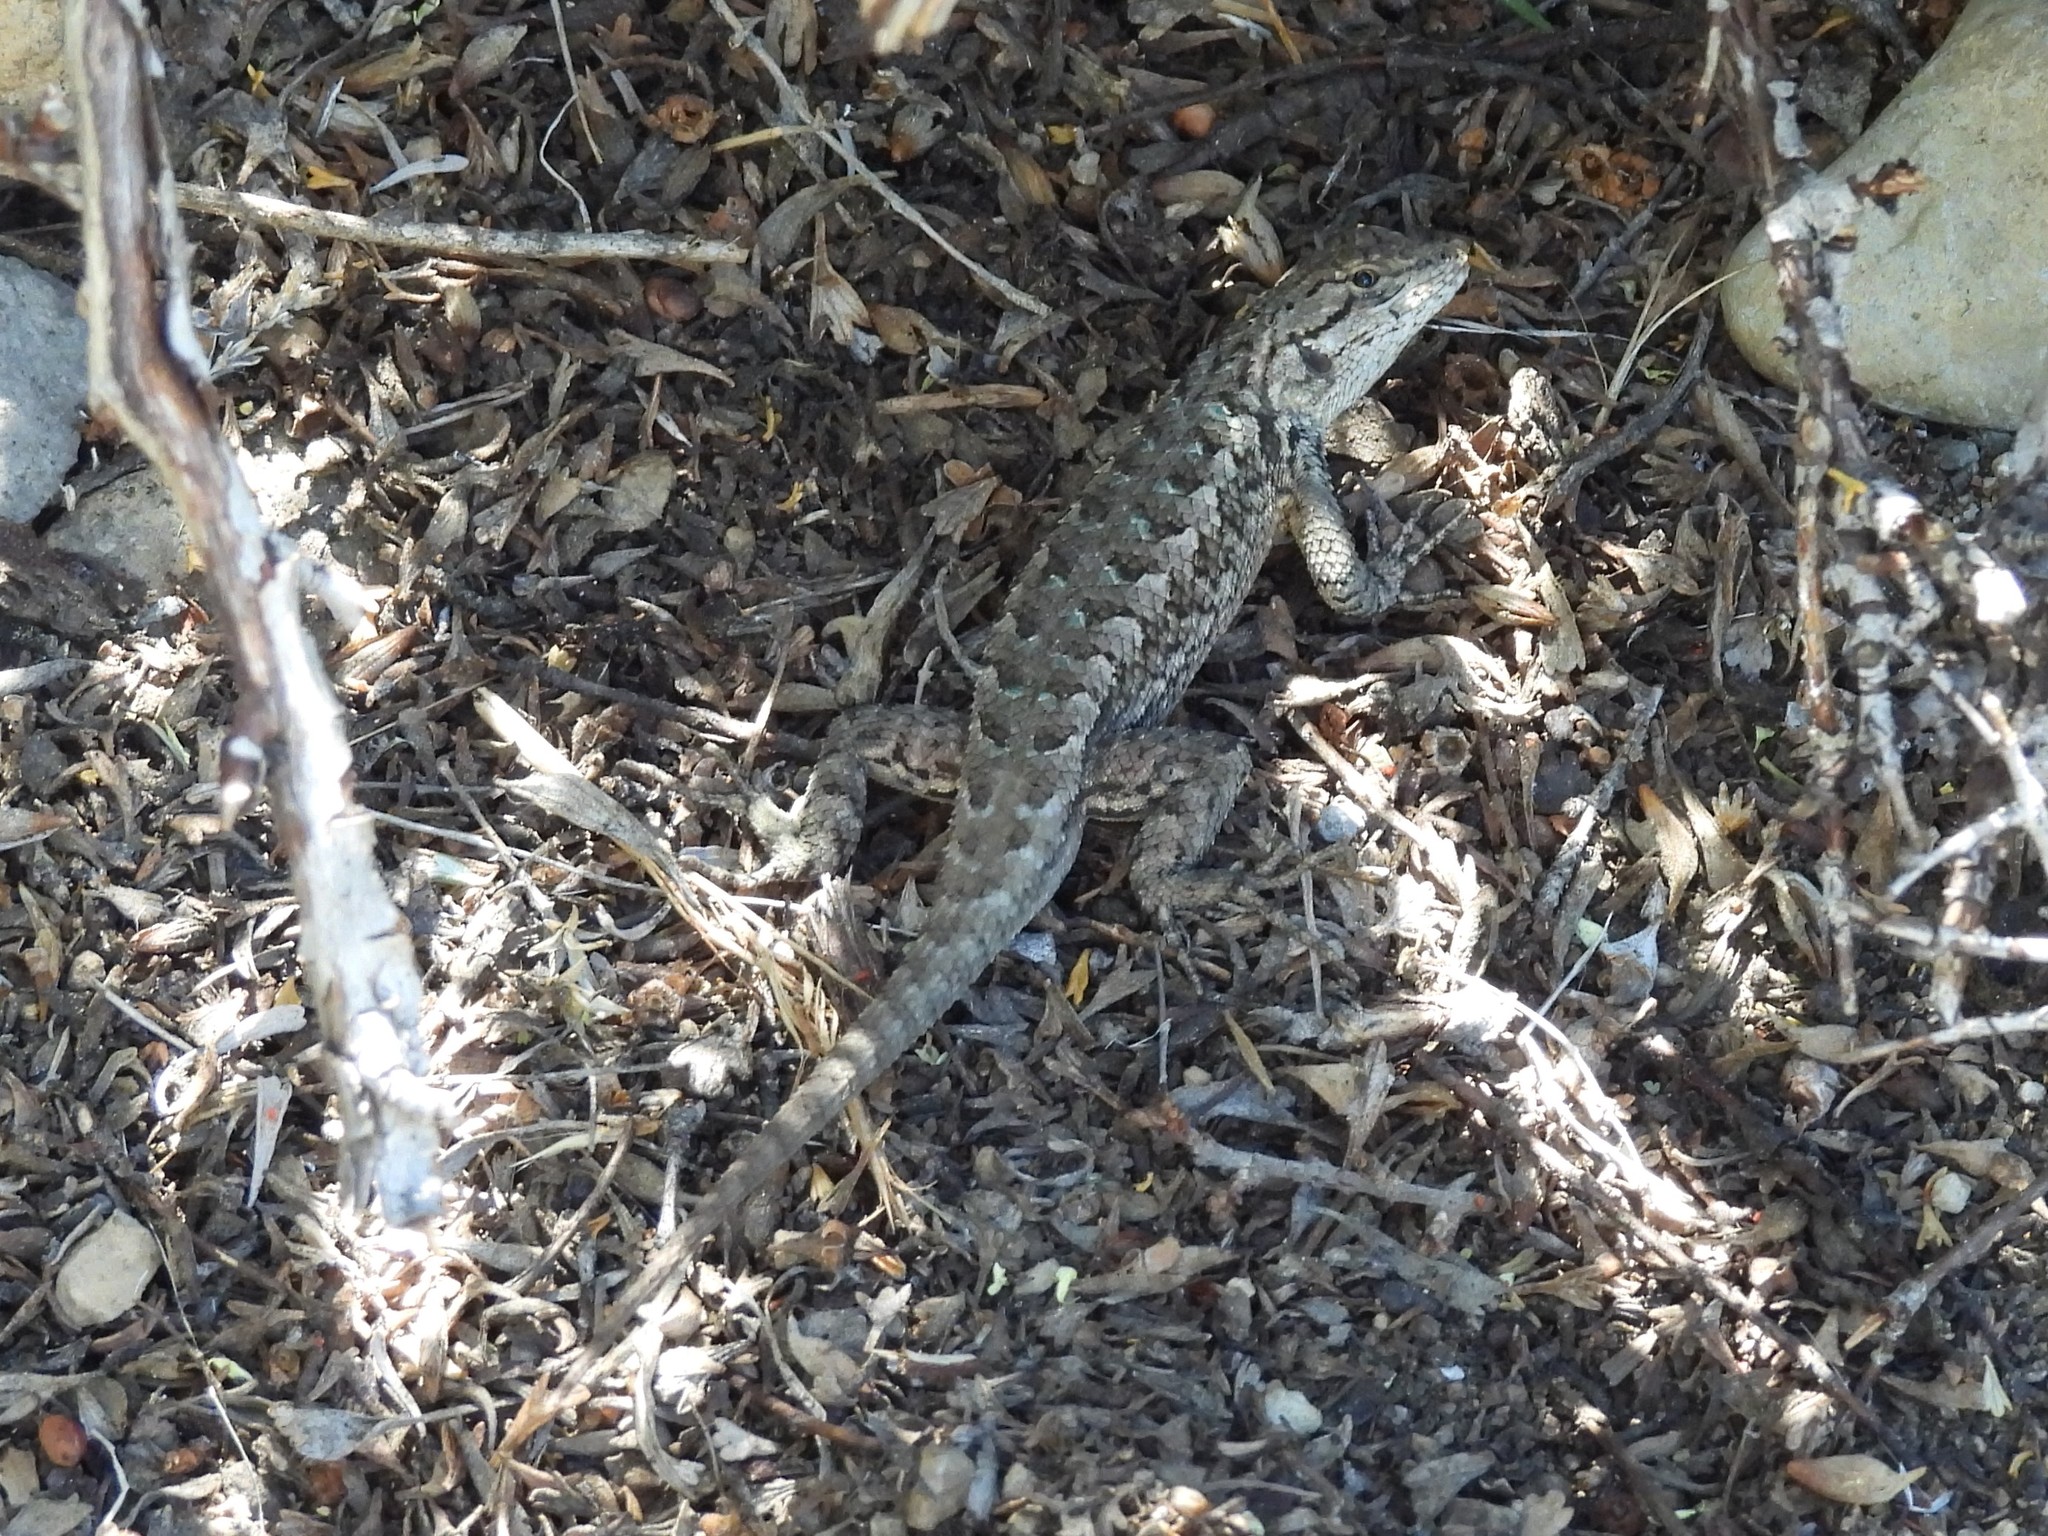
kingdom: Animalia
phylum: Chordata
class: Squamata
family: Phrynosomatidae
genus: Sceloporus
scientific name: Sceloporus occidentalis
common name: Western fence lizard
